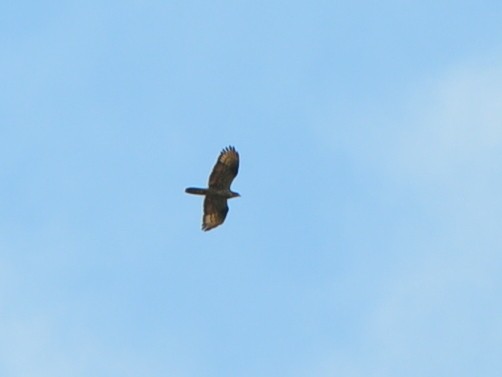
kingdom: Animalia
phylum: Chordata
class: Aves
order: Accipitriformes
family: Accipitridae
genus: Pernis
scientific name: Pernis apivorus
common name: European honey buzzard
